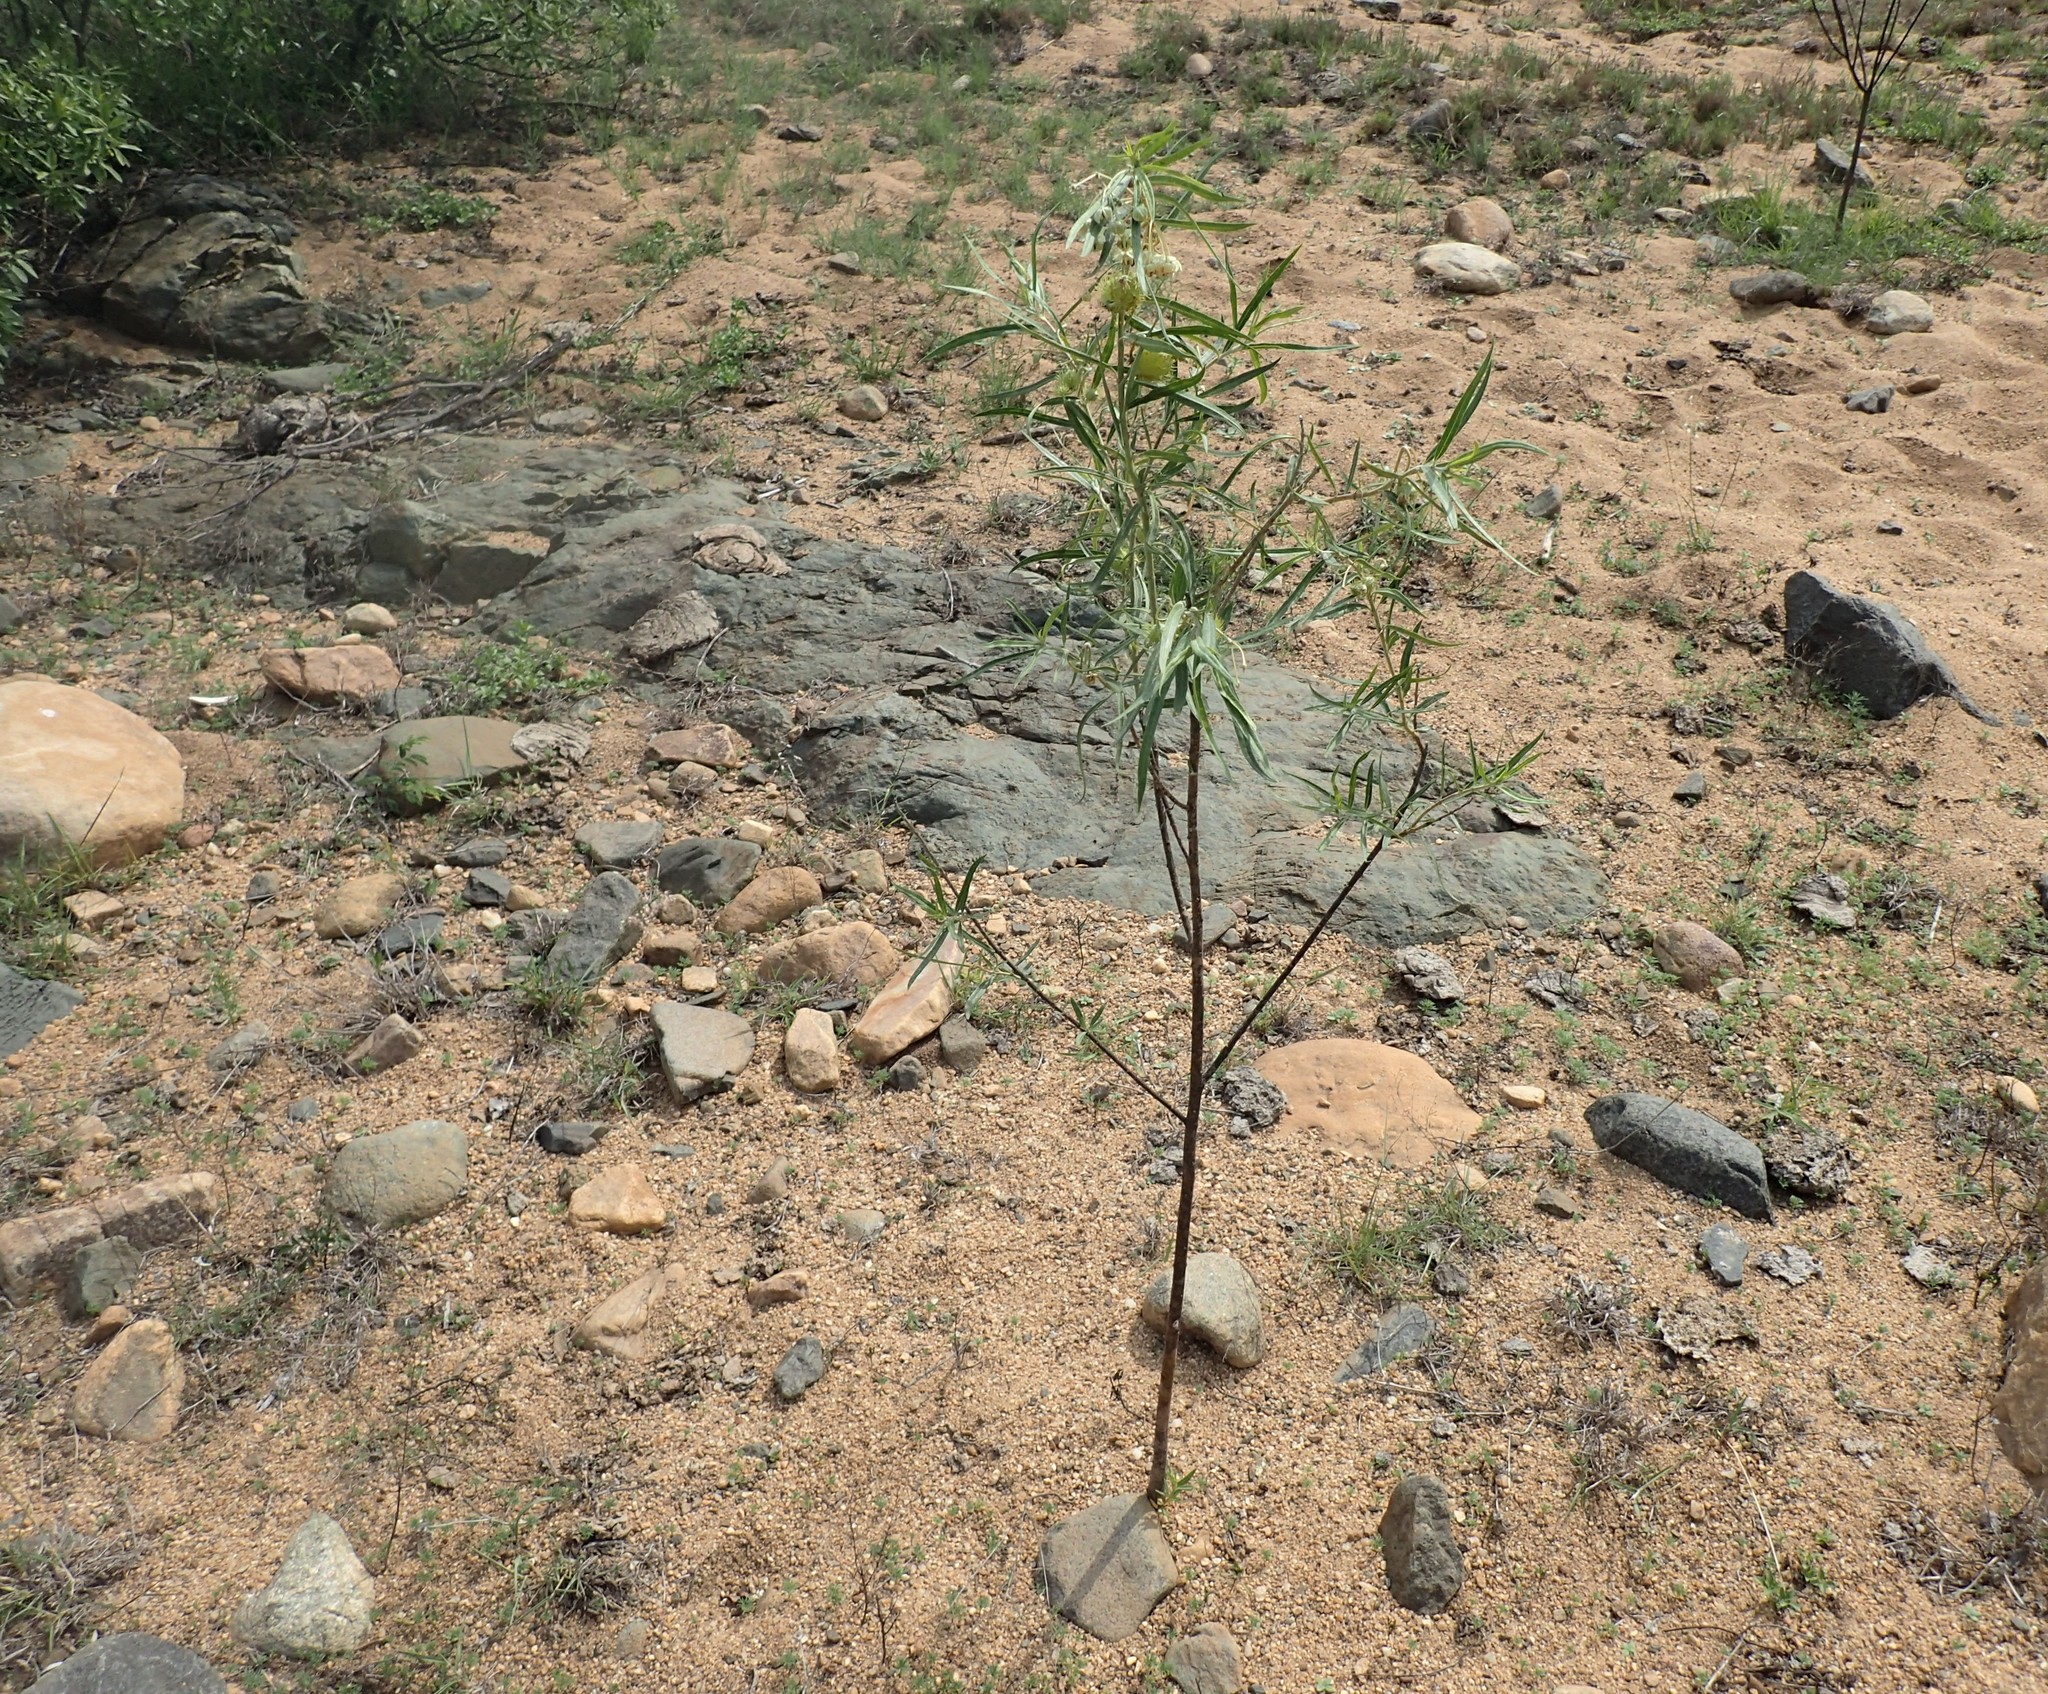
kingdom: Plantae
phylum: Tracheophyta
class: Magnoliopsida
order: Gentianales
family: Apocynaceae
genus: Gomphocarpus
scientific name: Gomphocarpus fruticosus
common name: Milkweed
